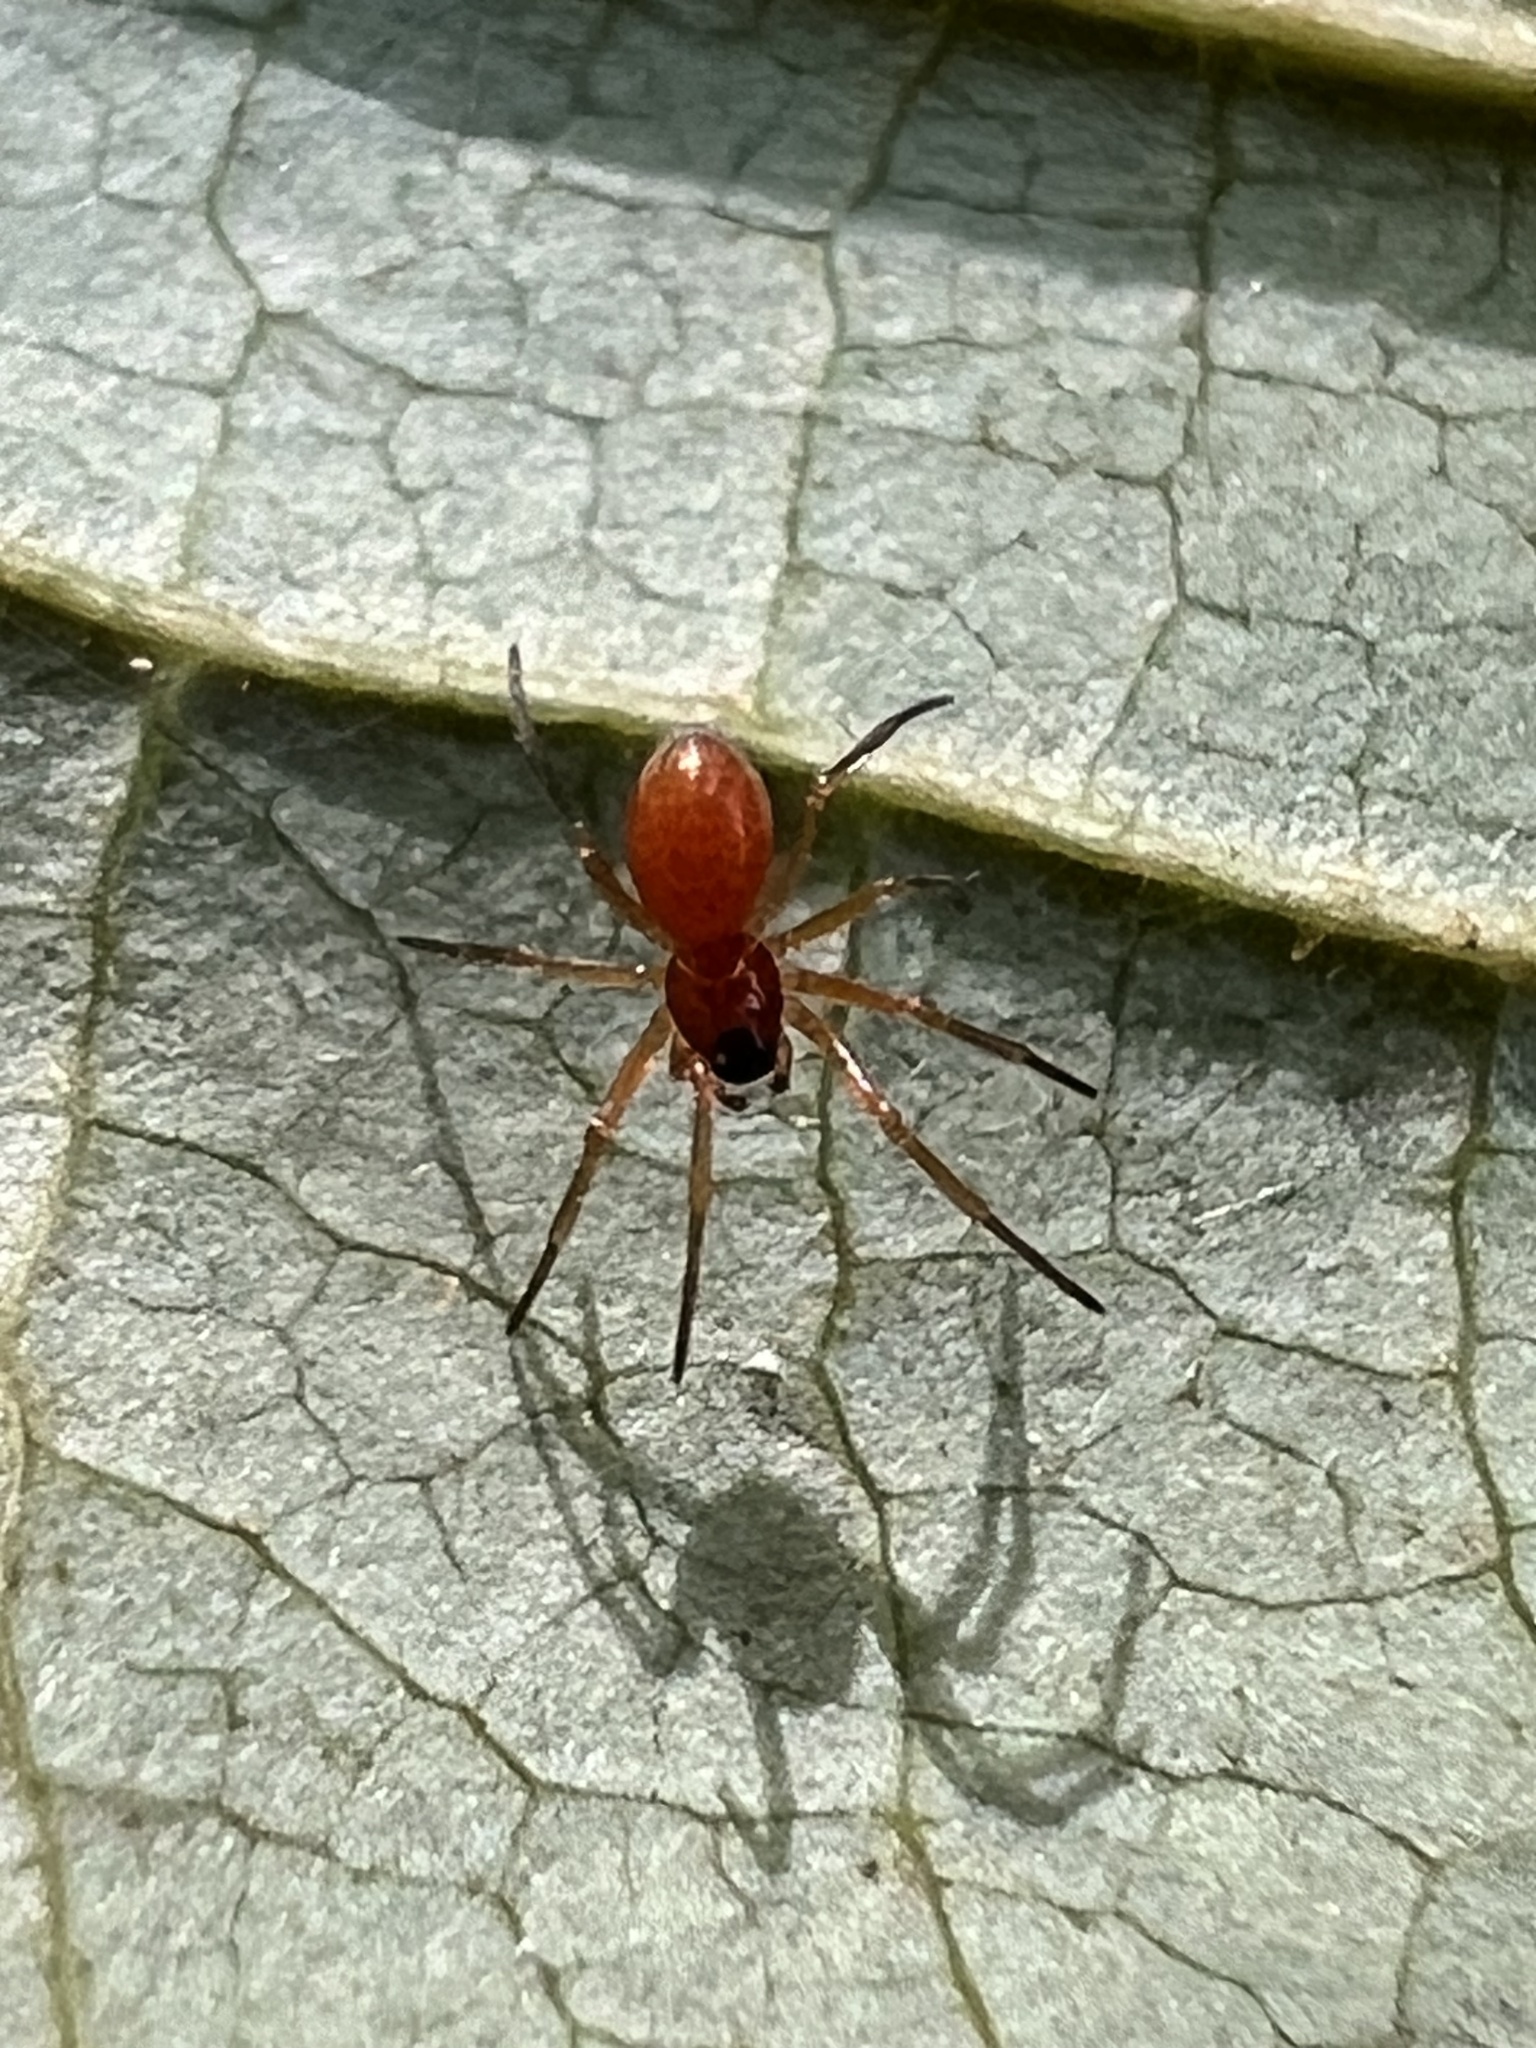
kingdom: Animalia
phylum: Arthropoda
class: Arachnida
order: Araneae
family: Linyphiidae
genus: Florinda
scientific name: Florinda coccinea
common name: Black-tailed red sheetweaver
